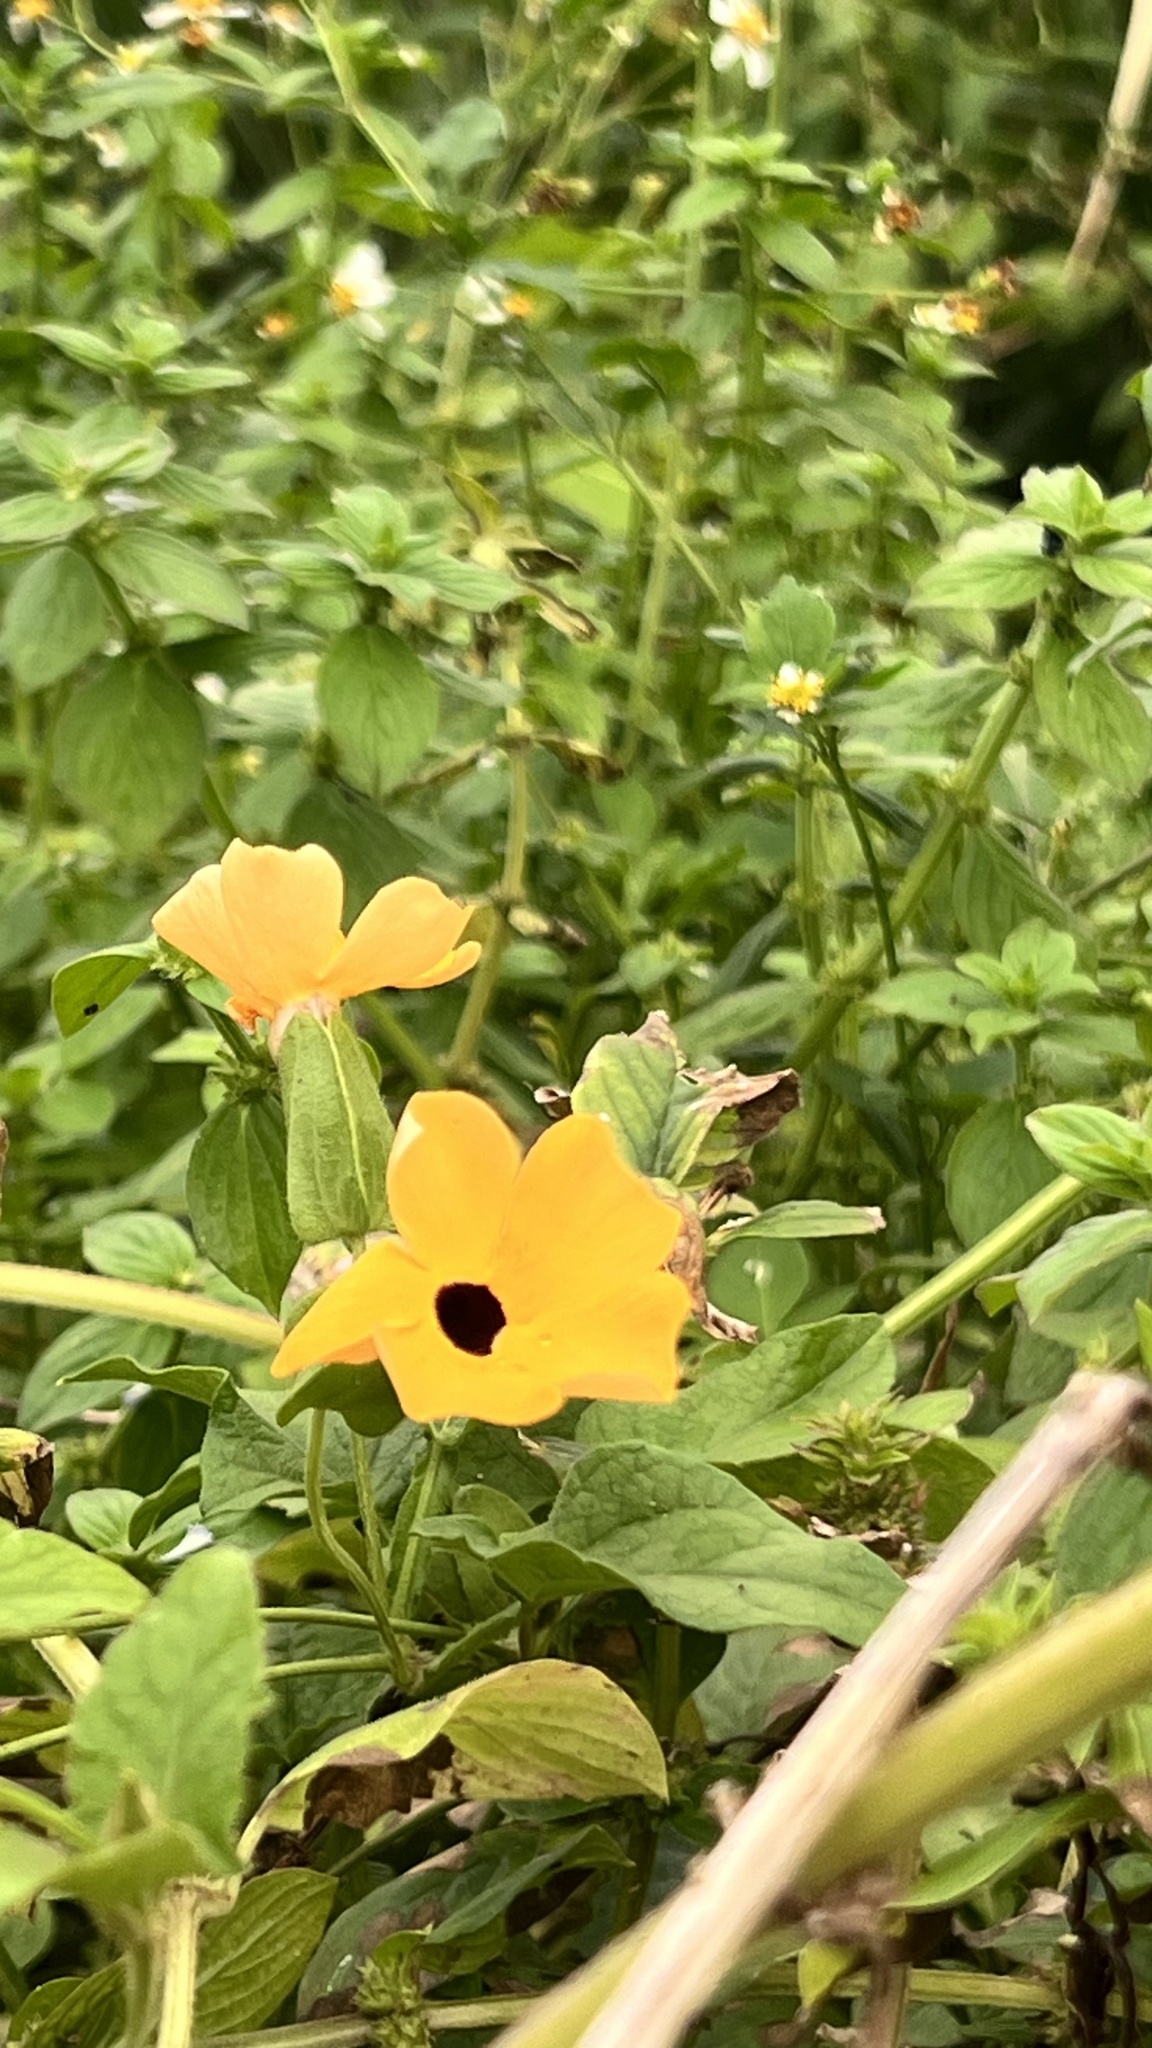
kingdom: Plantae
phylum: Tracheophyta
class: Magnoliopsida
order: Lamiales
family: Acanthaceae
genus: Thunbergia
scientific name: Thunbergia alata
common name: Blackeyed susan vine
